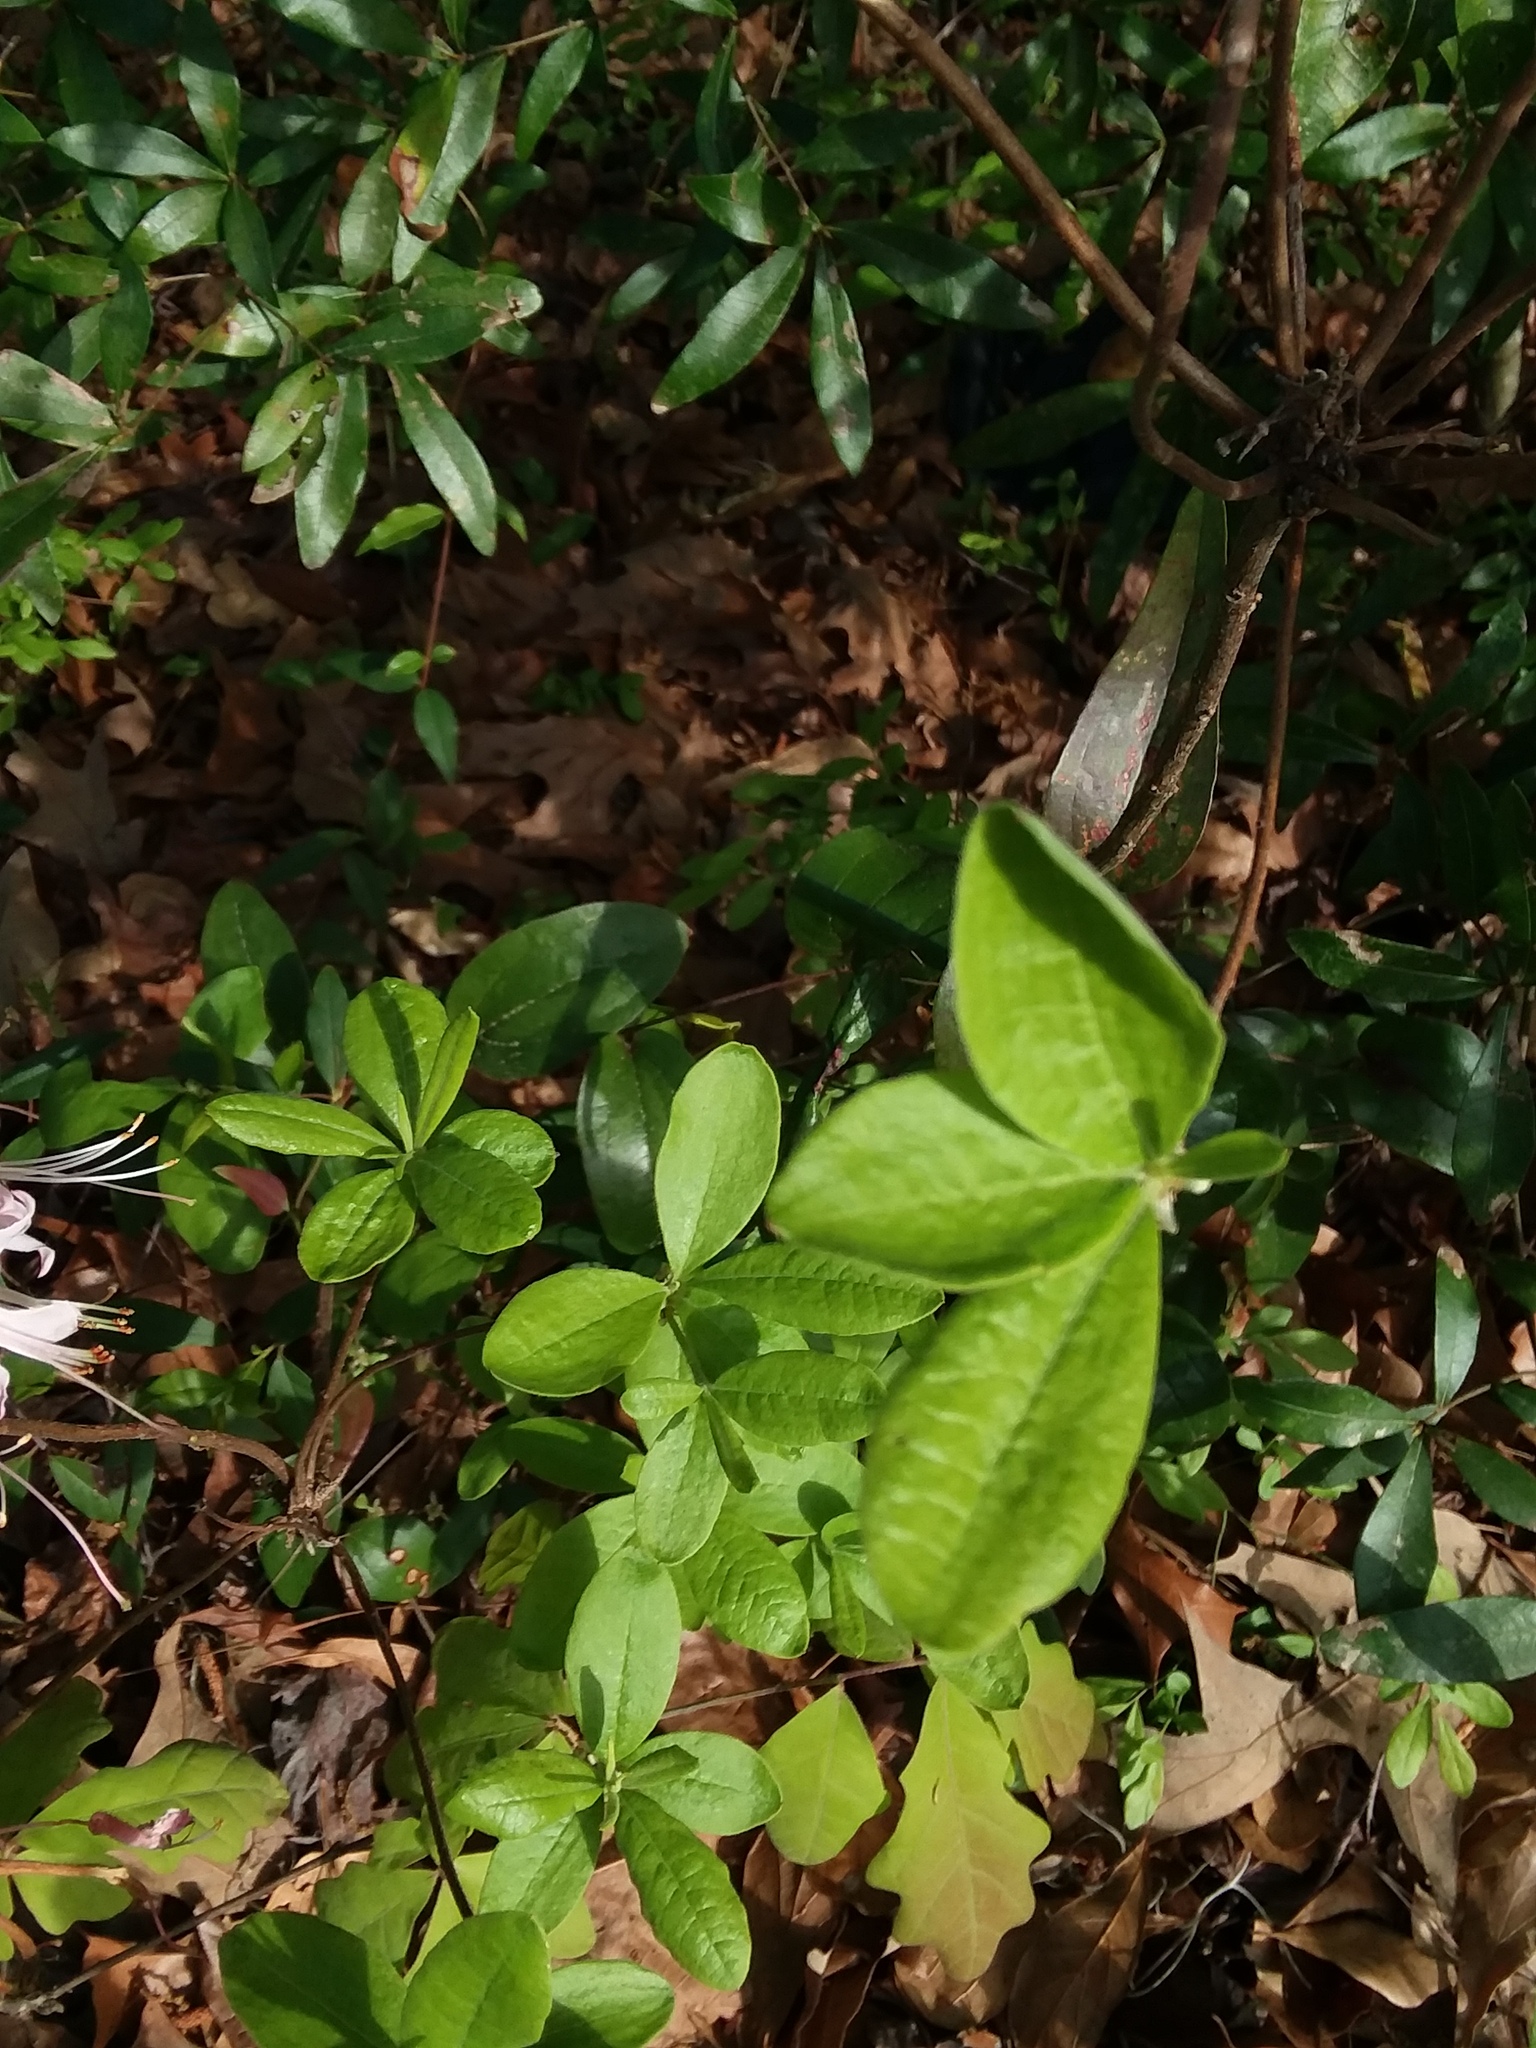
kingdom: Plantae
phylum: Tracheophyta
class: Magnoliopsida
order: Ericales
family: Ericaceae
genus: Rhododendron
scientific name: Rhododendron canescens
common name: Mountain azalea
